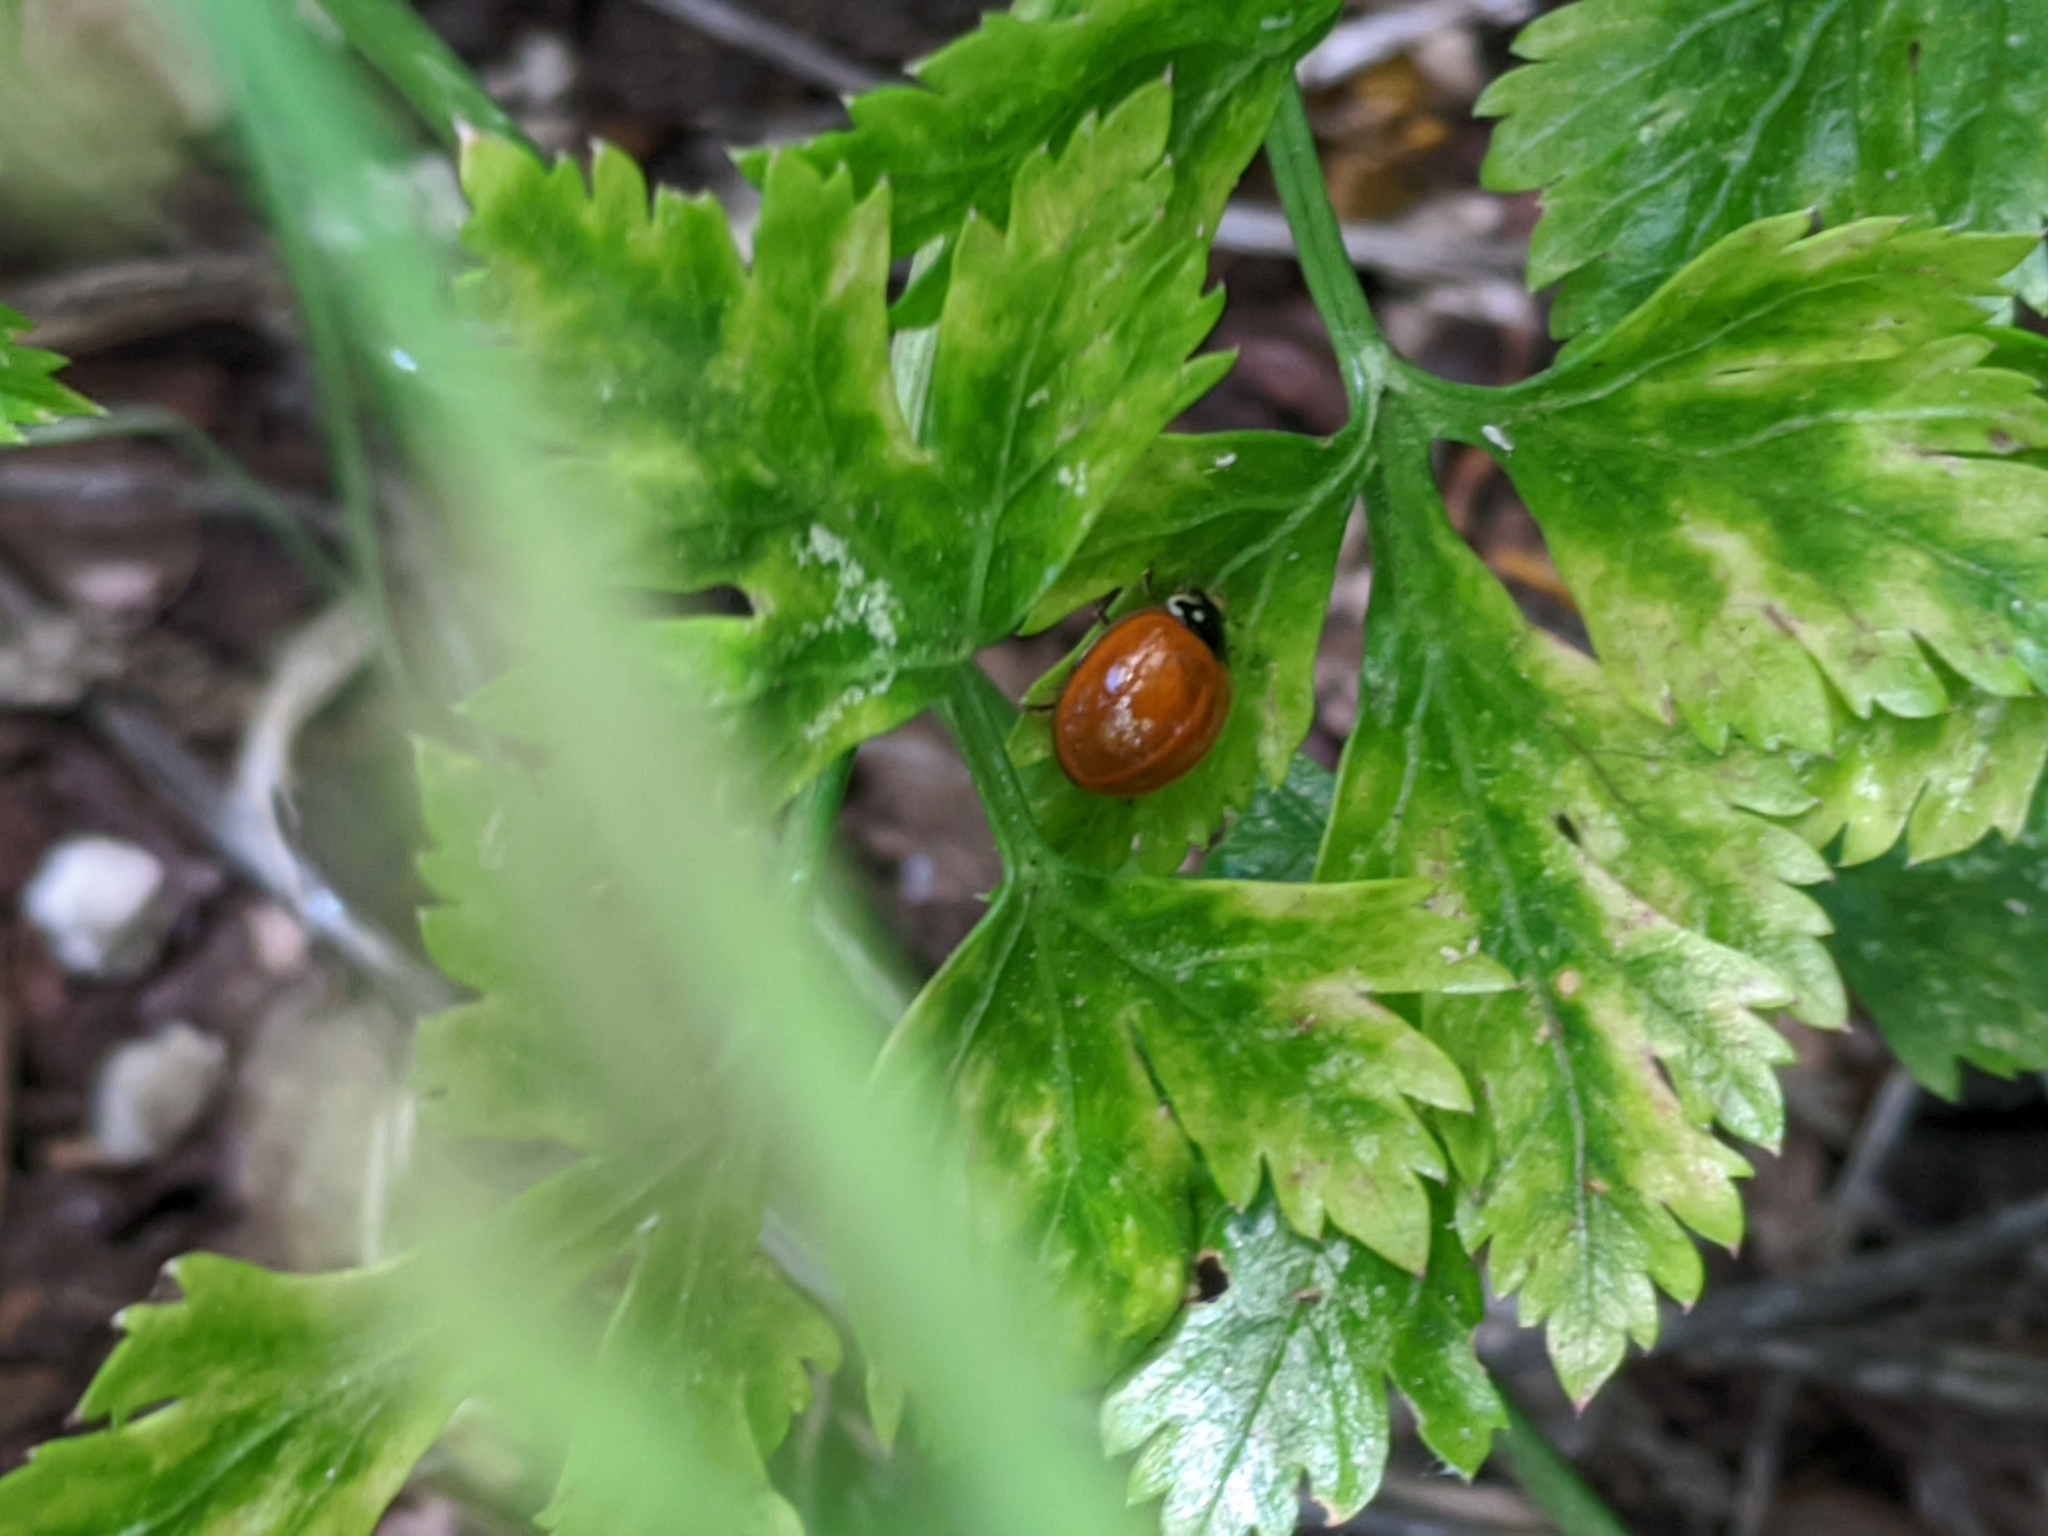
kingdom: Animalia
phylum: Arthropoda
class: Insecta
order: Coleoptera
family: Coccinellidae
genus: Cycloneda
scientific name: Cycloneda sanguinea
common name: Ladybird beetle
